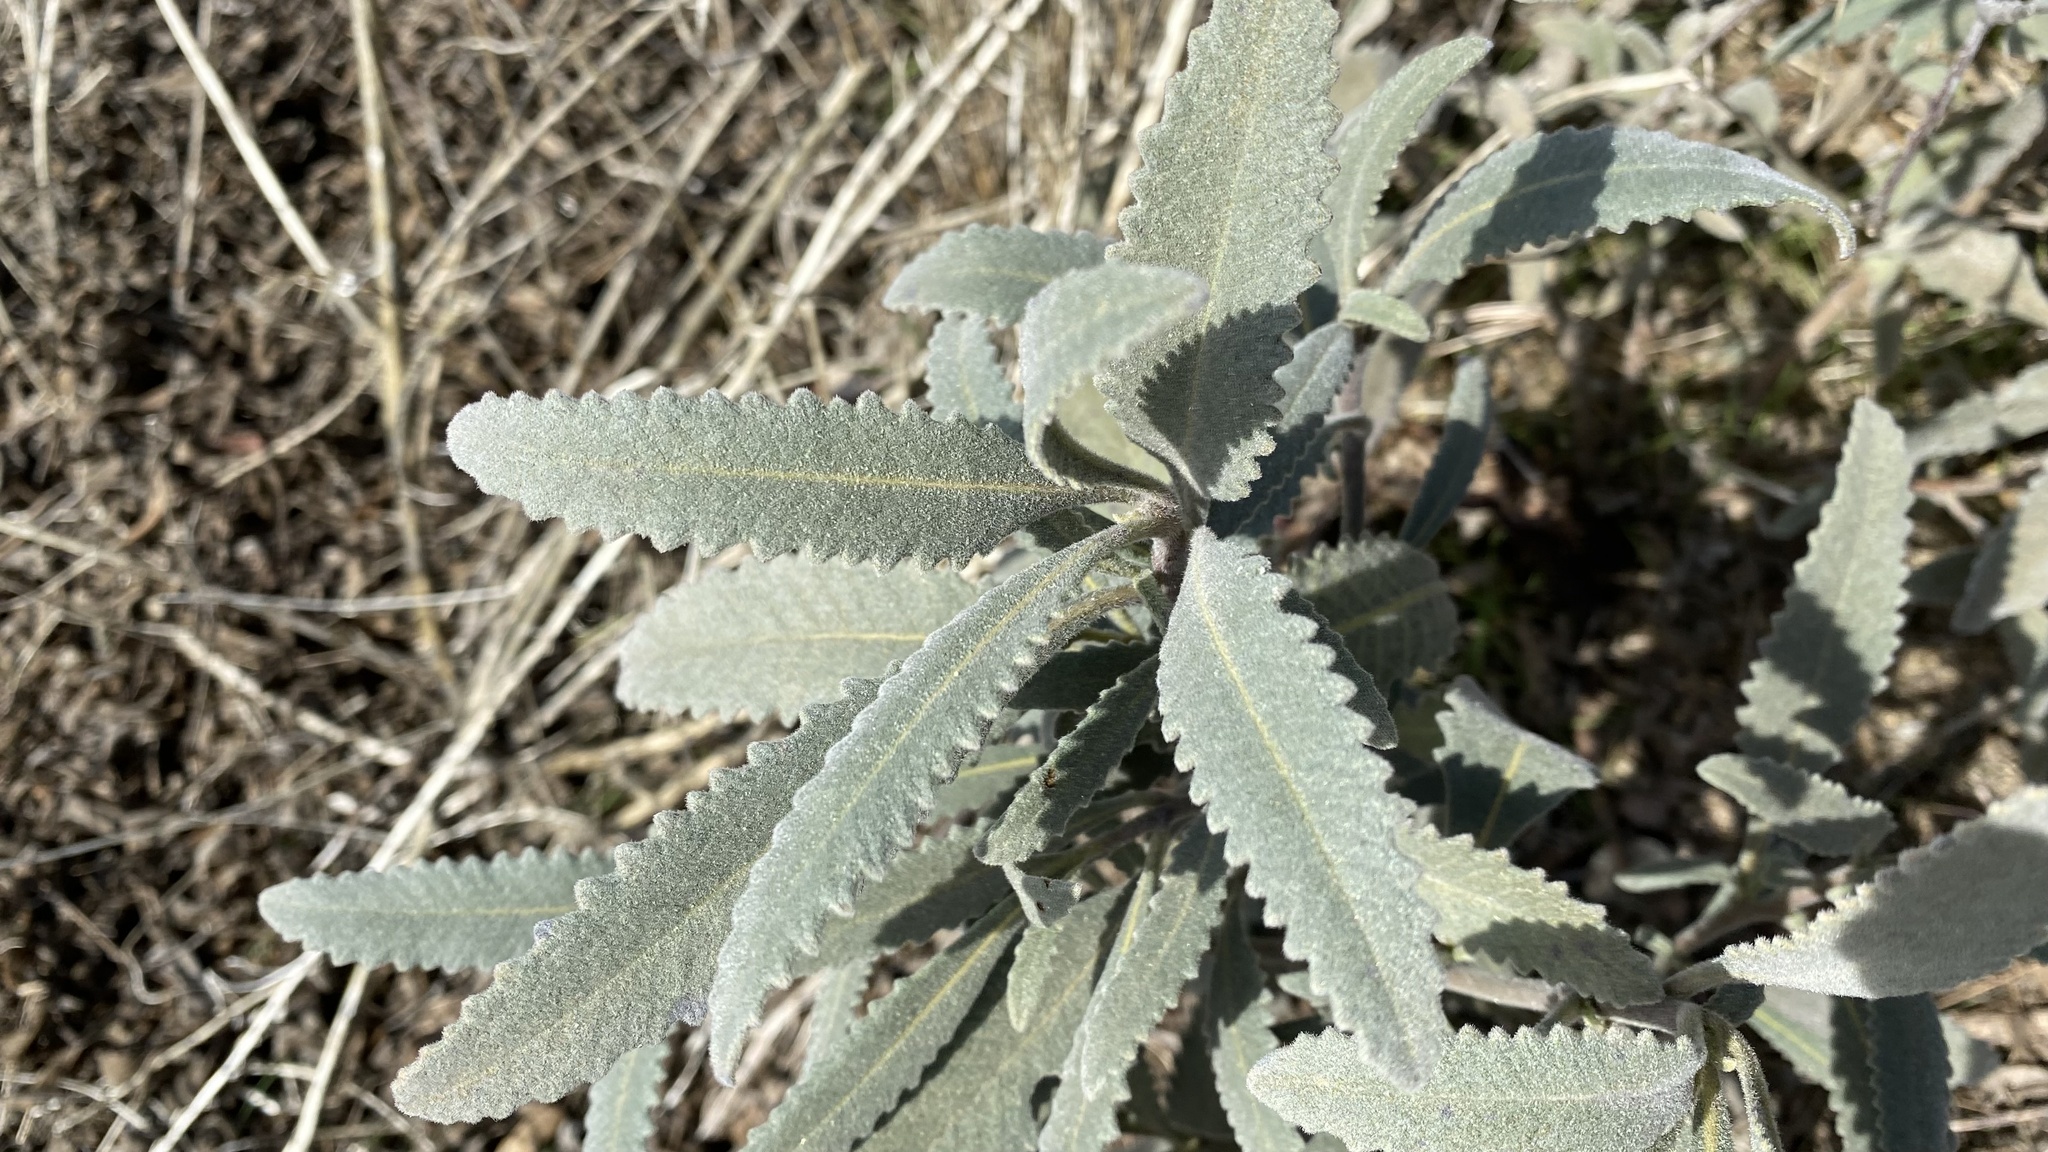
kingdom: Plantae
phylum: Tracheophyta
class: Magnoliopsida
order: Boraginales
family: Namaceae
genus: Eriodictyon
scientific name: Eriodictyon crassifolium
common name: Thick-leaf yerba-santa
